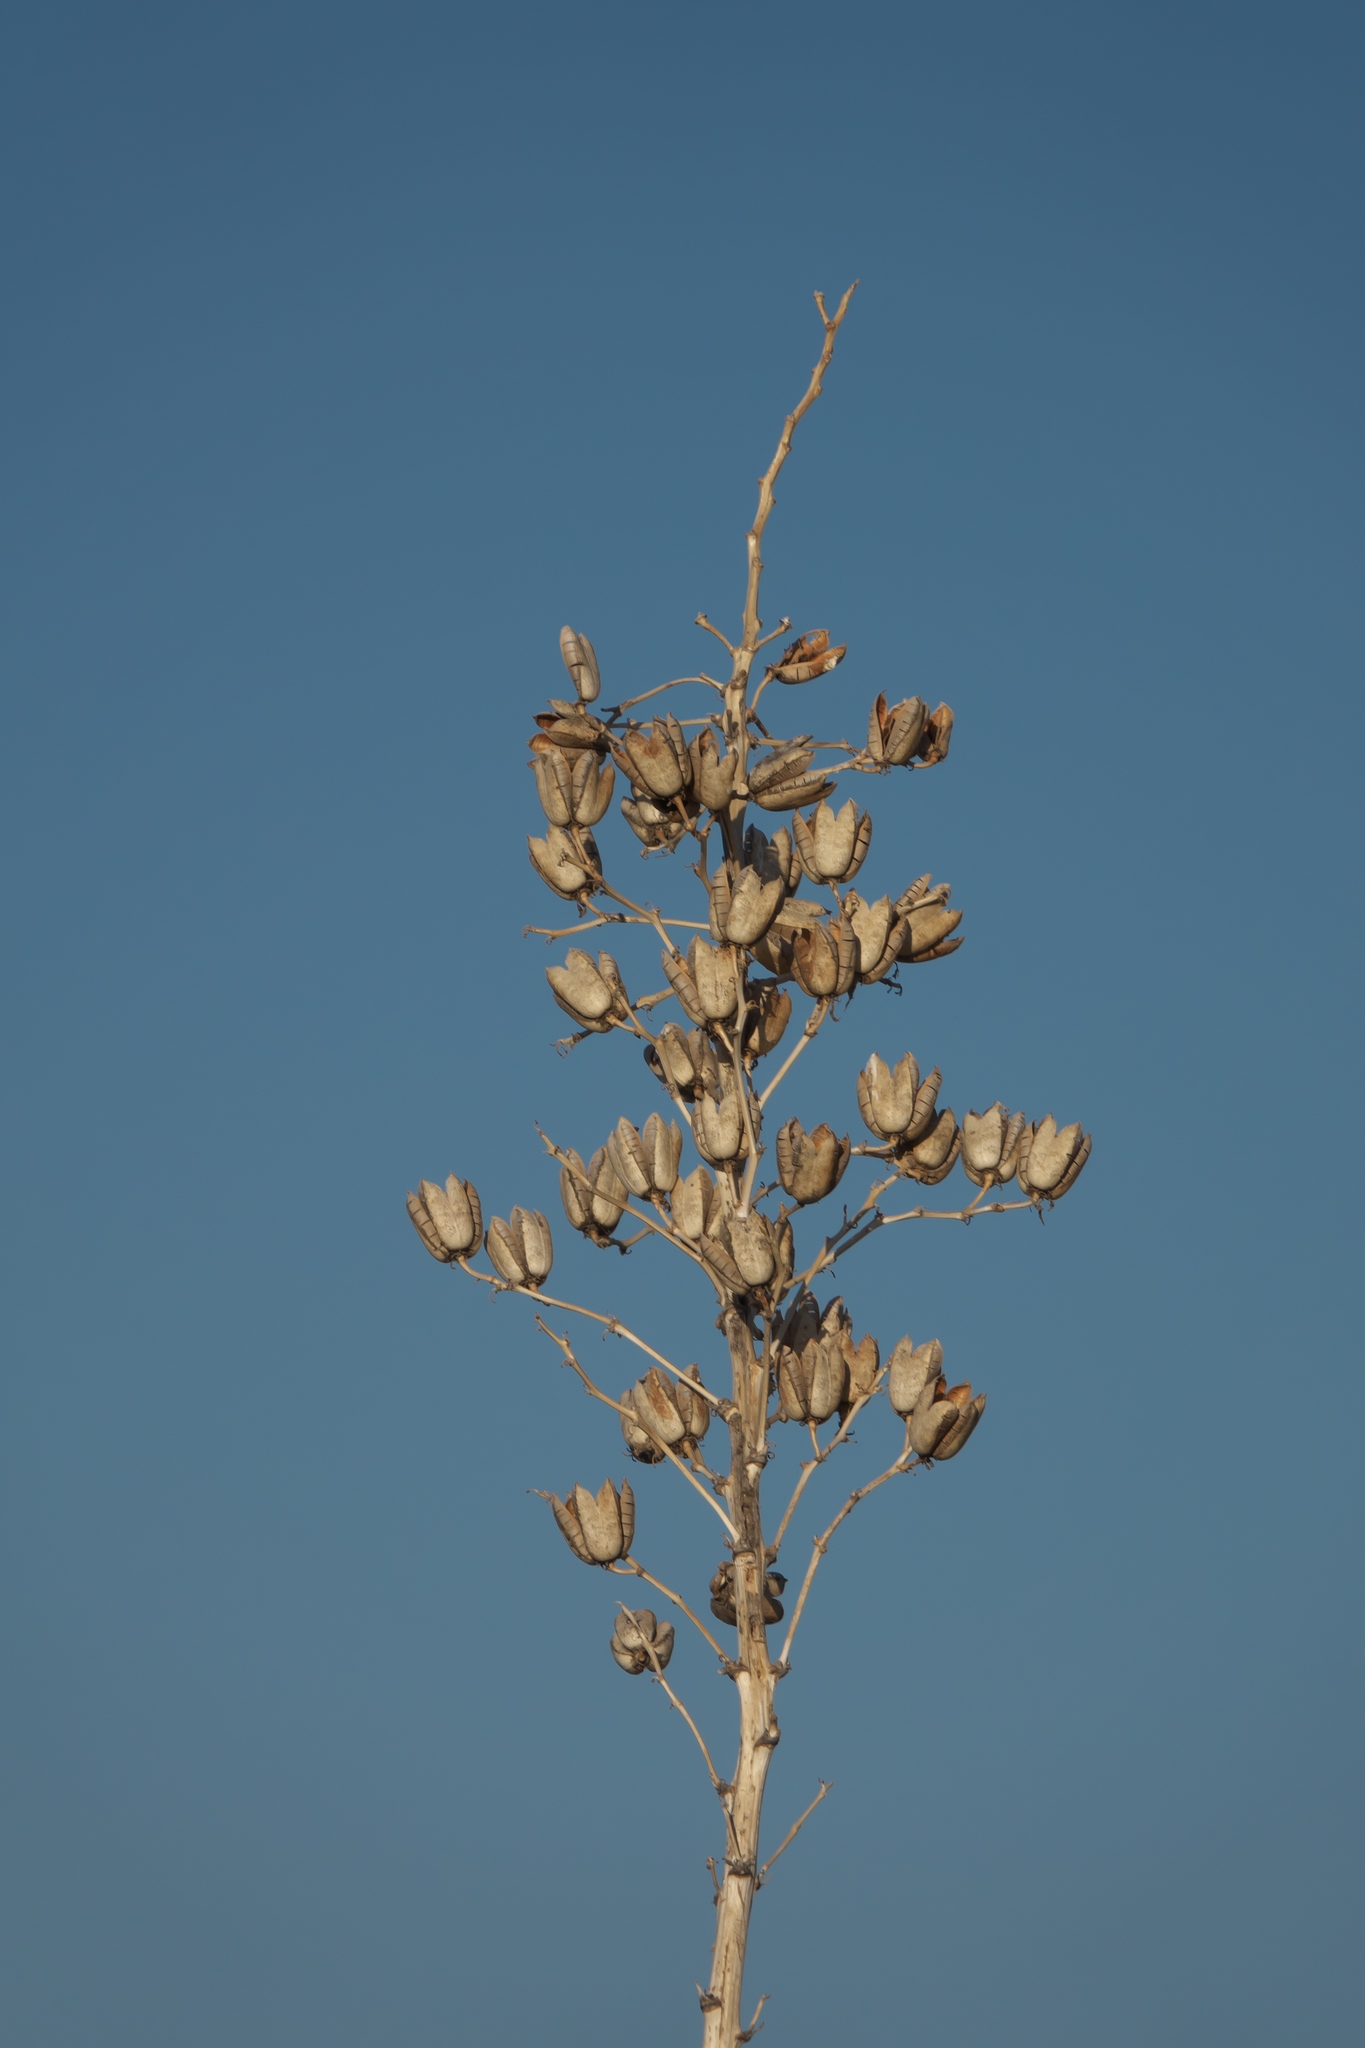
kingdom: Plantae
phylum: Tracheophyta
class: Liliopsida
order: Asparagales
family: Asparagaceae
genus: Yucca
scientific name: Yucca elata
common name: Palmella
